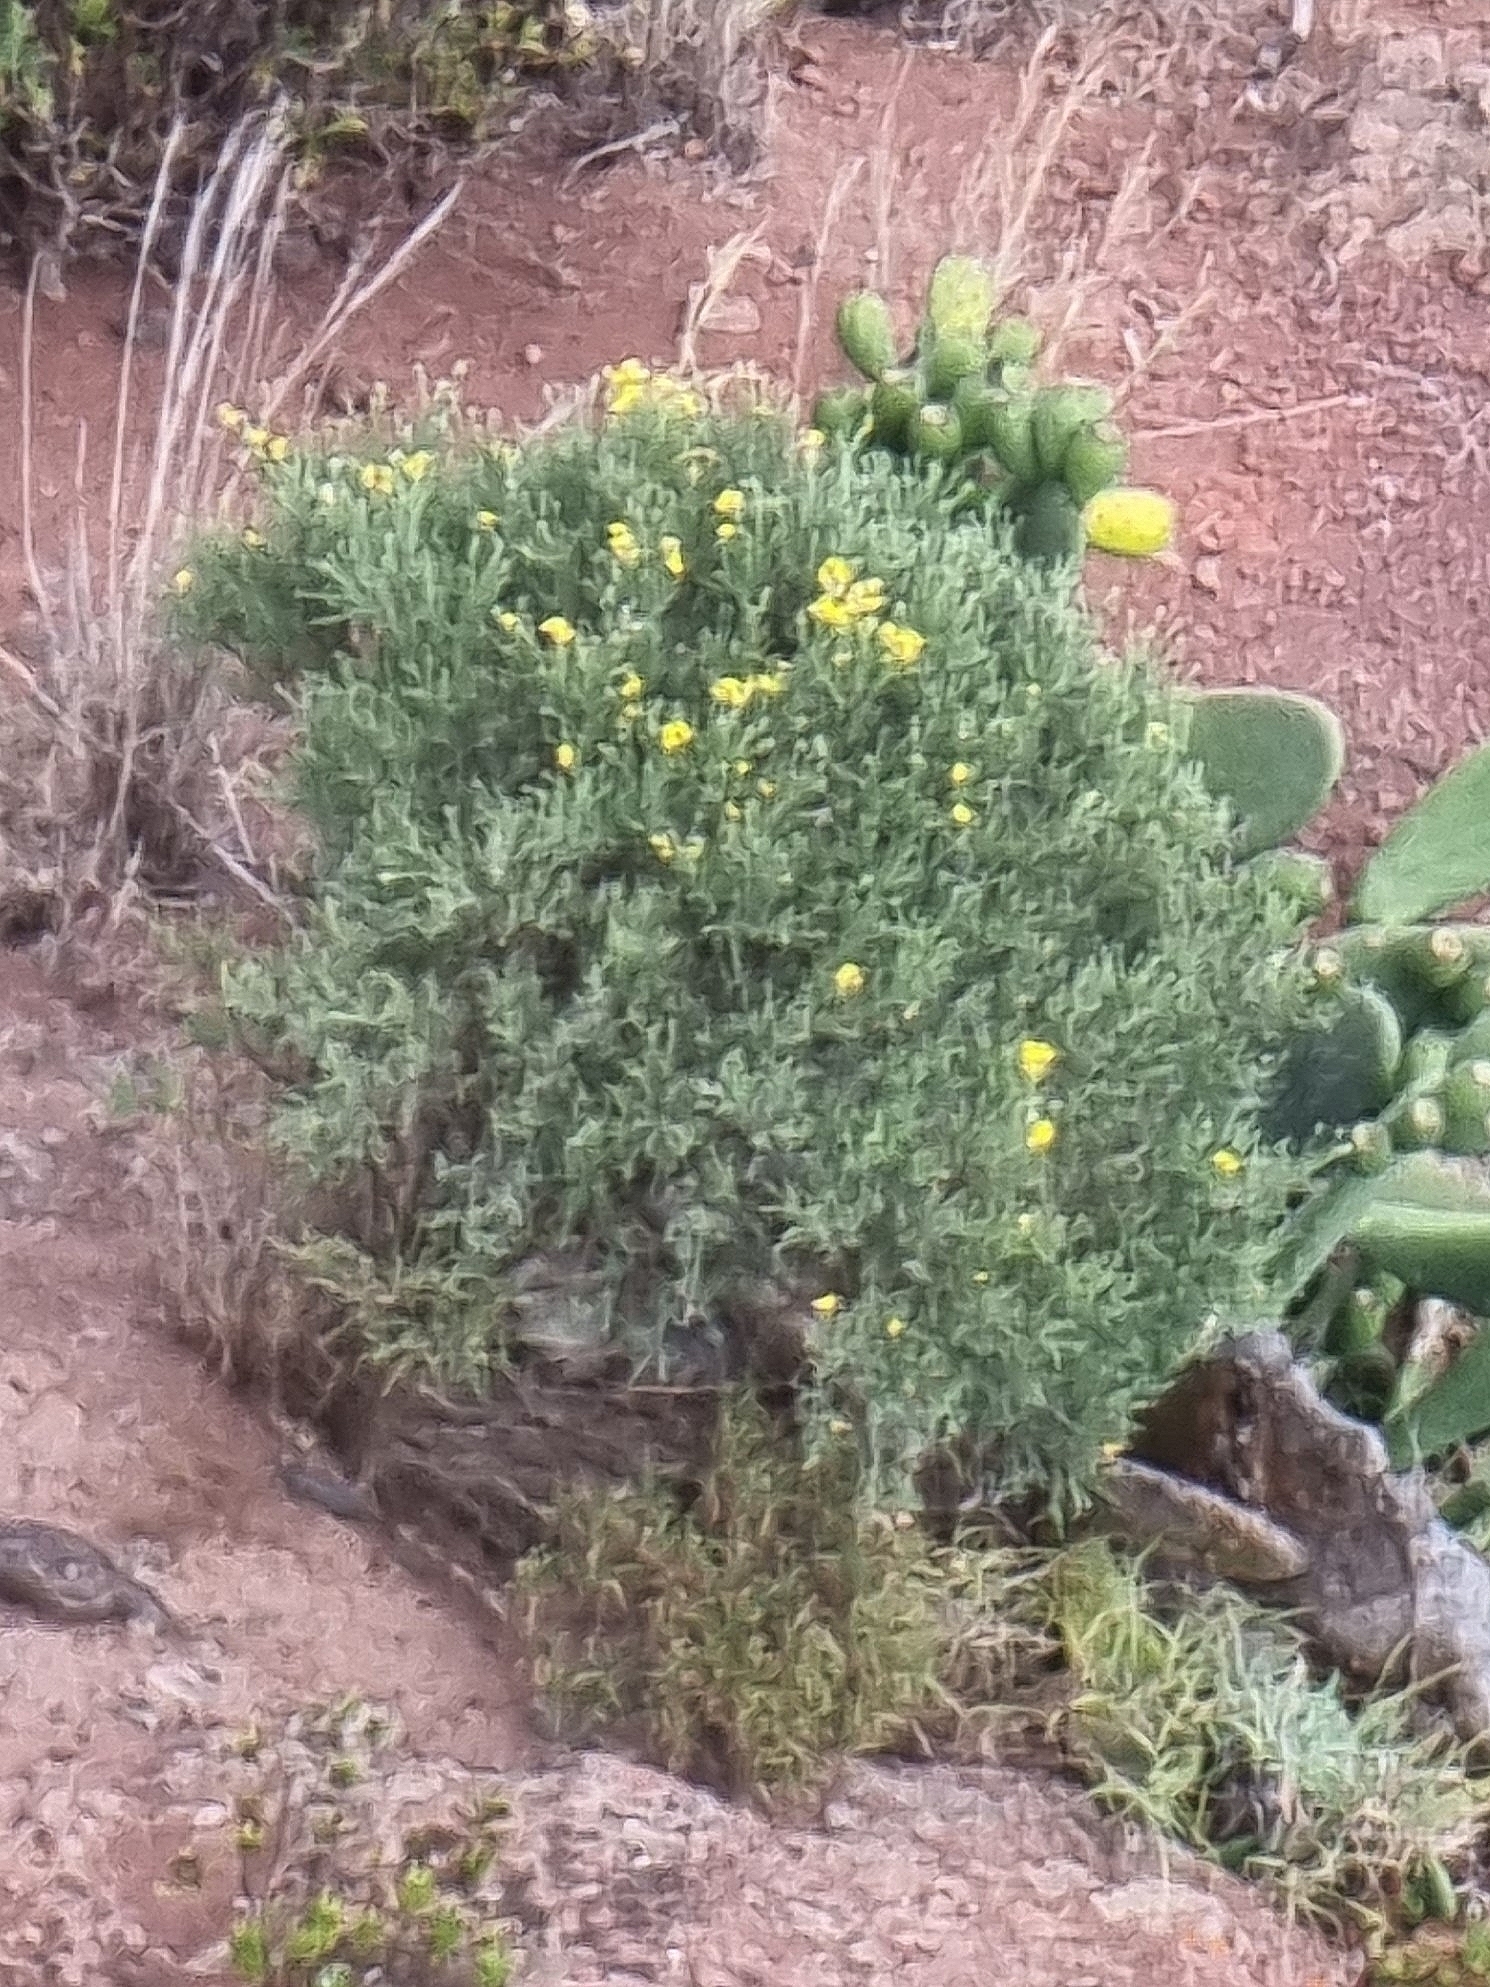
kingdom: Plantae
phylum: Tracheophyta
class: Magnoliopsida
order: Fabales
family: Fabaceae
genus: Genista
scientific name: Genista tenera
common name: Madeira broom
